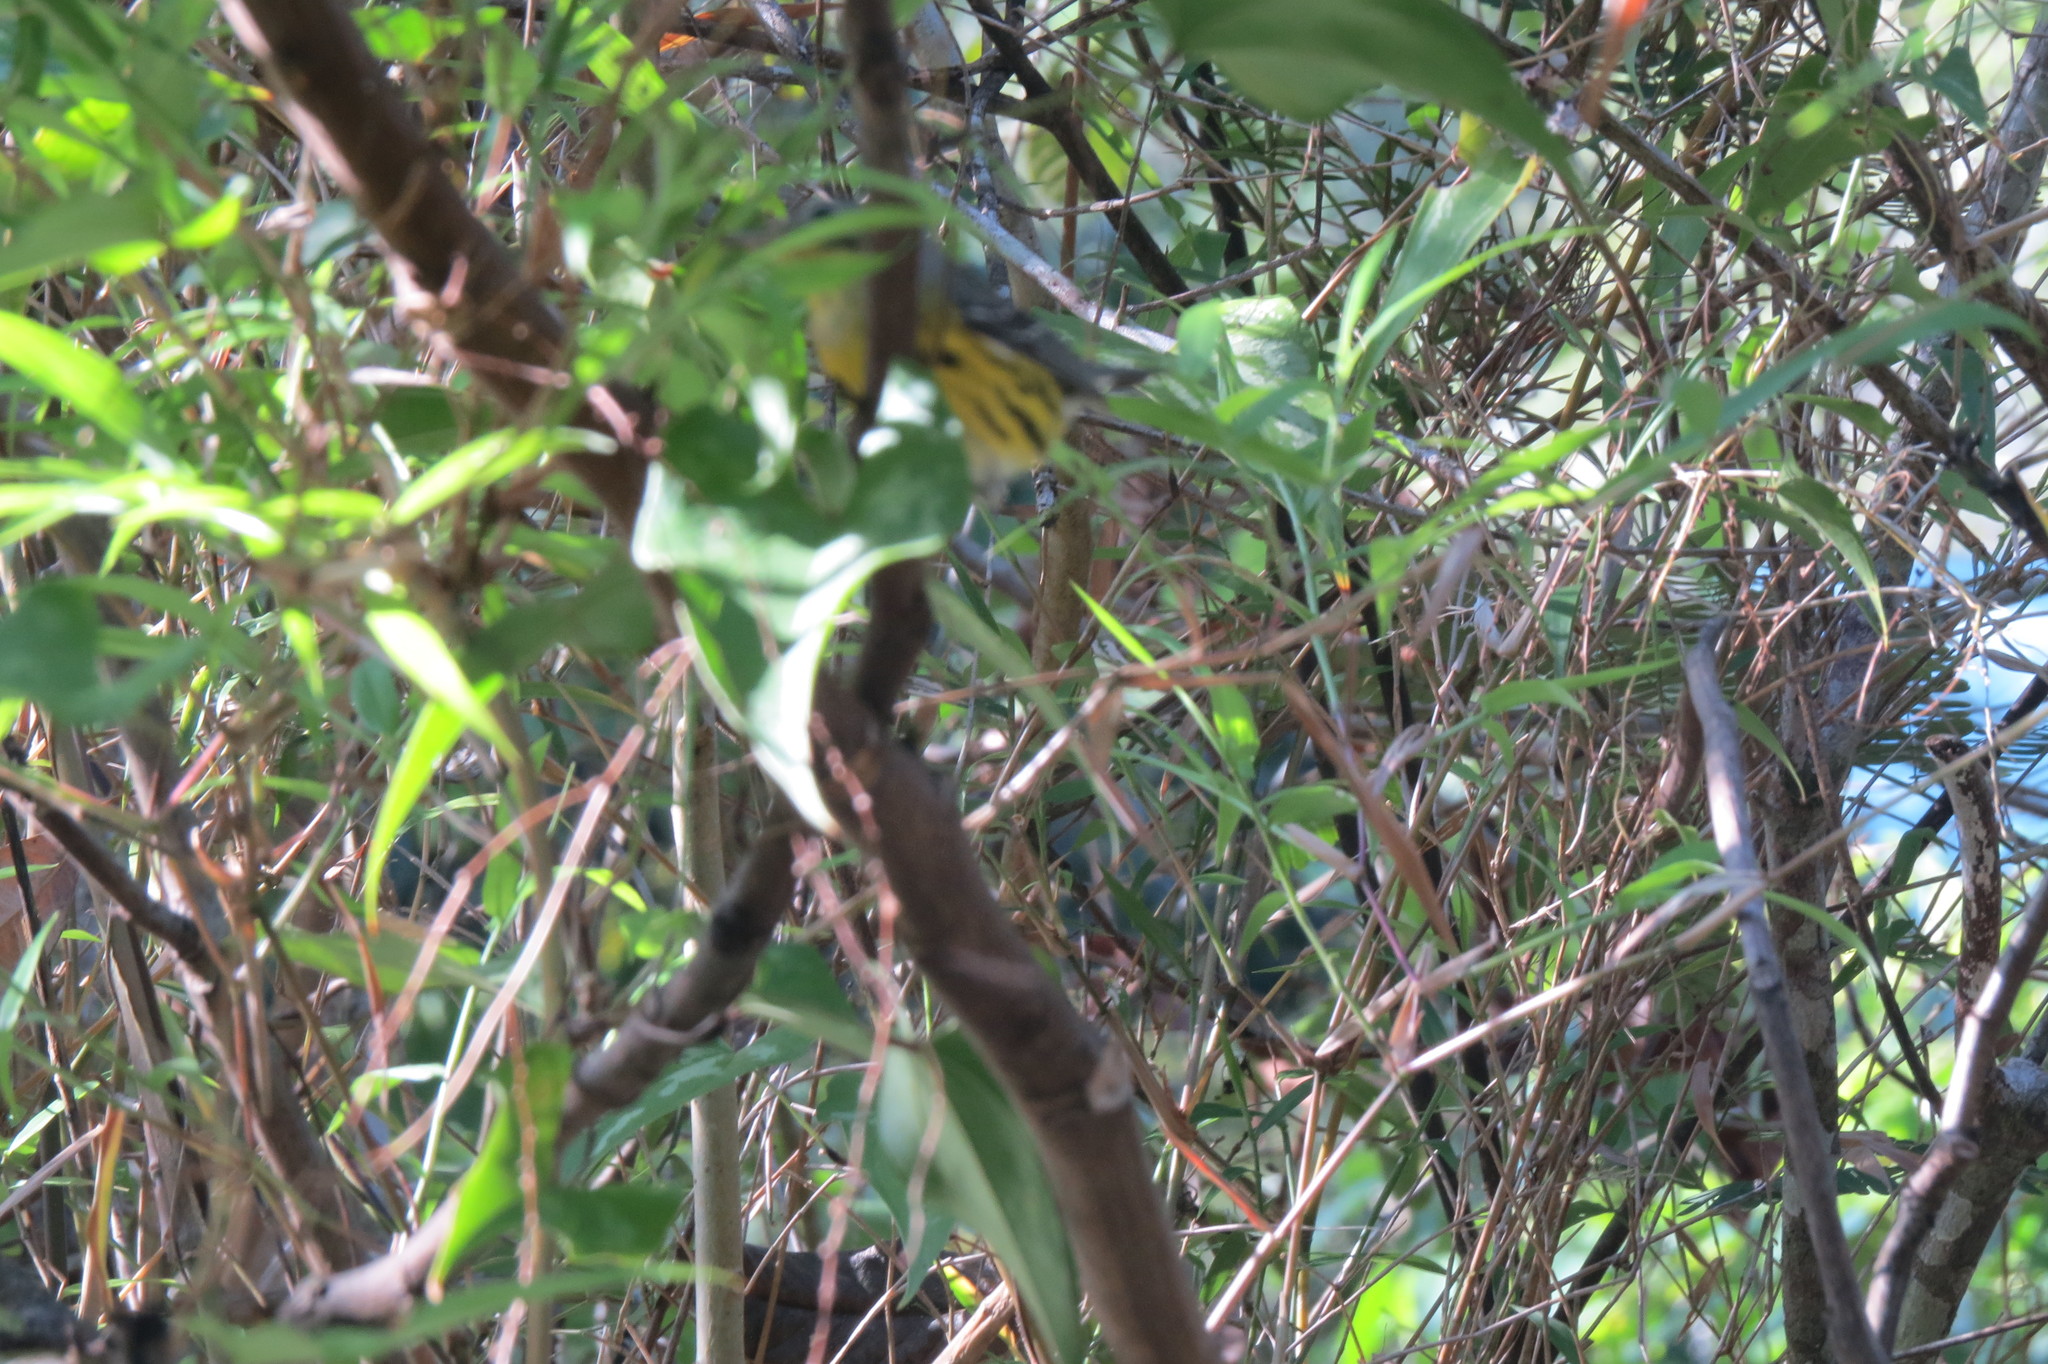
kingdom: Animalia
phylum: Chordata
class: Aves
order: Passeriformes
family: Parulidae
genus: Setophaga
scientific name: Setophaga magnolia
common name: Magnolia warbler
